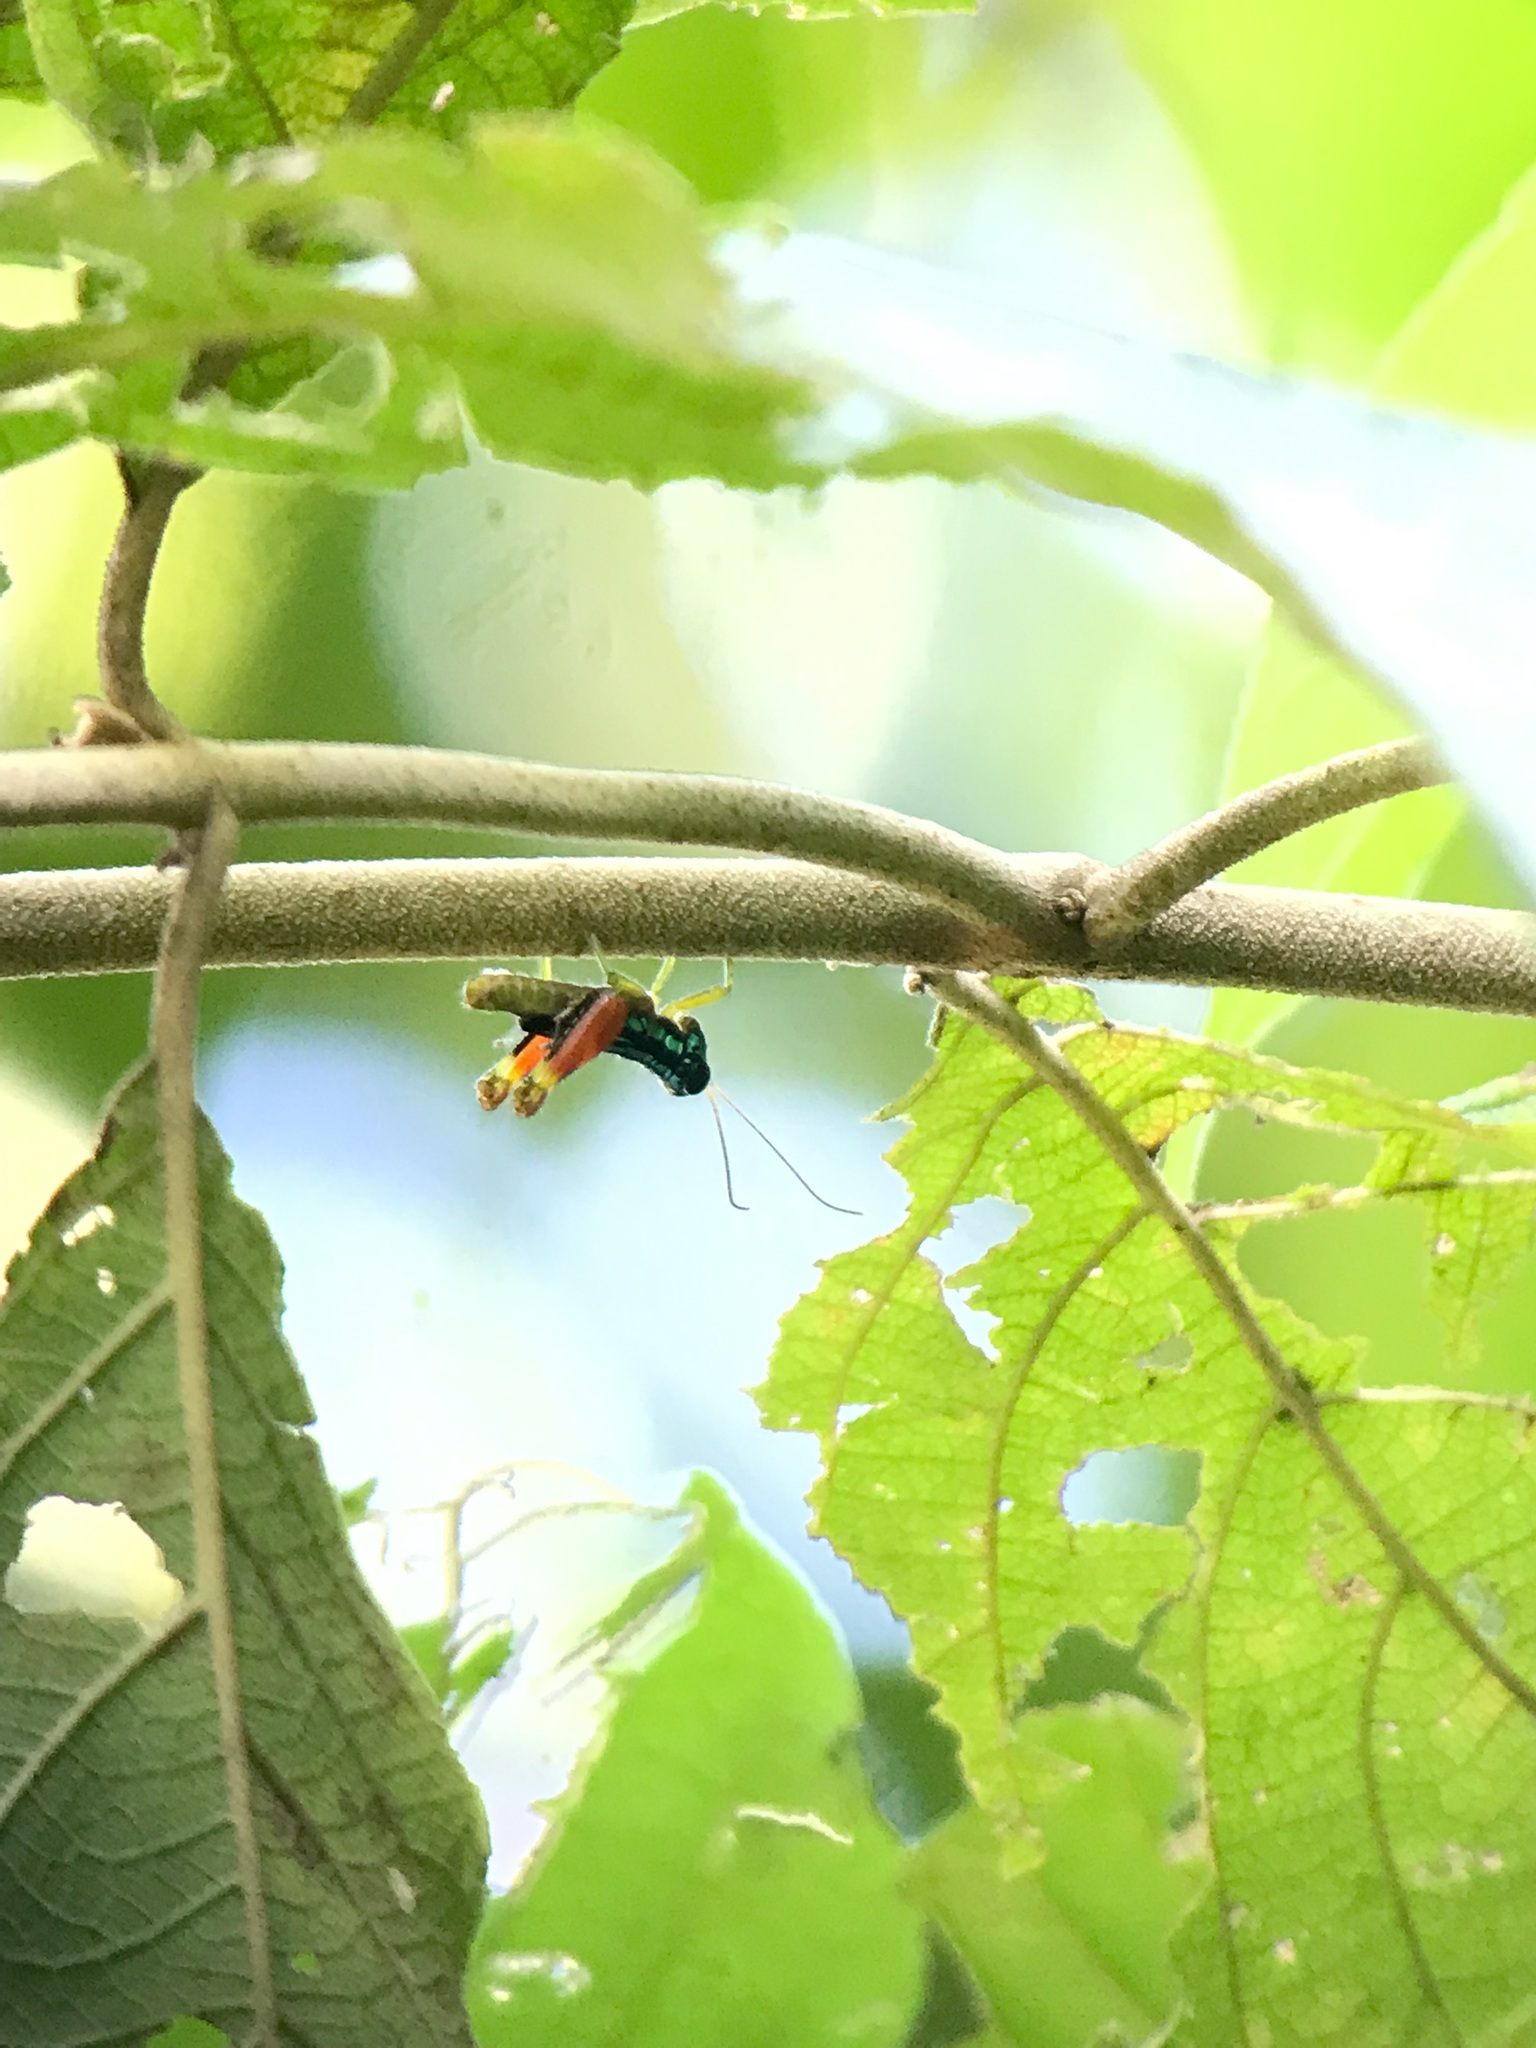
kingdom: Animalia
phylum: Arthropoda
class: Insecta
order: Orthoptera
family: Romaleidae
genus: Taeniophora
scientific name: Taeniophora femorata
